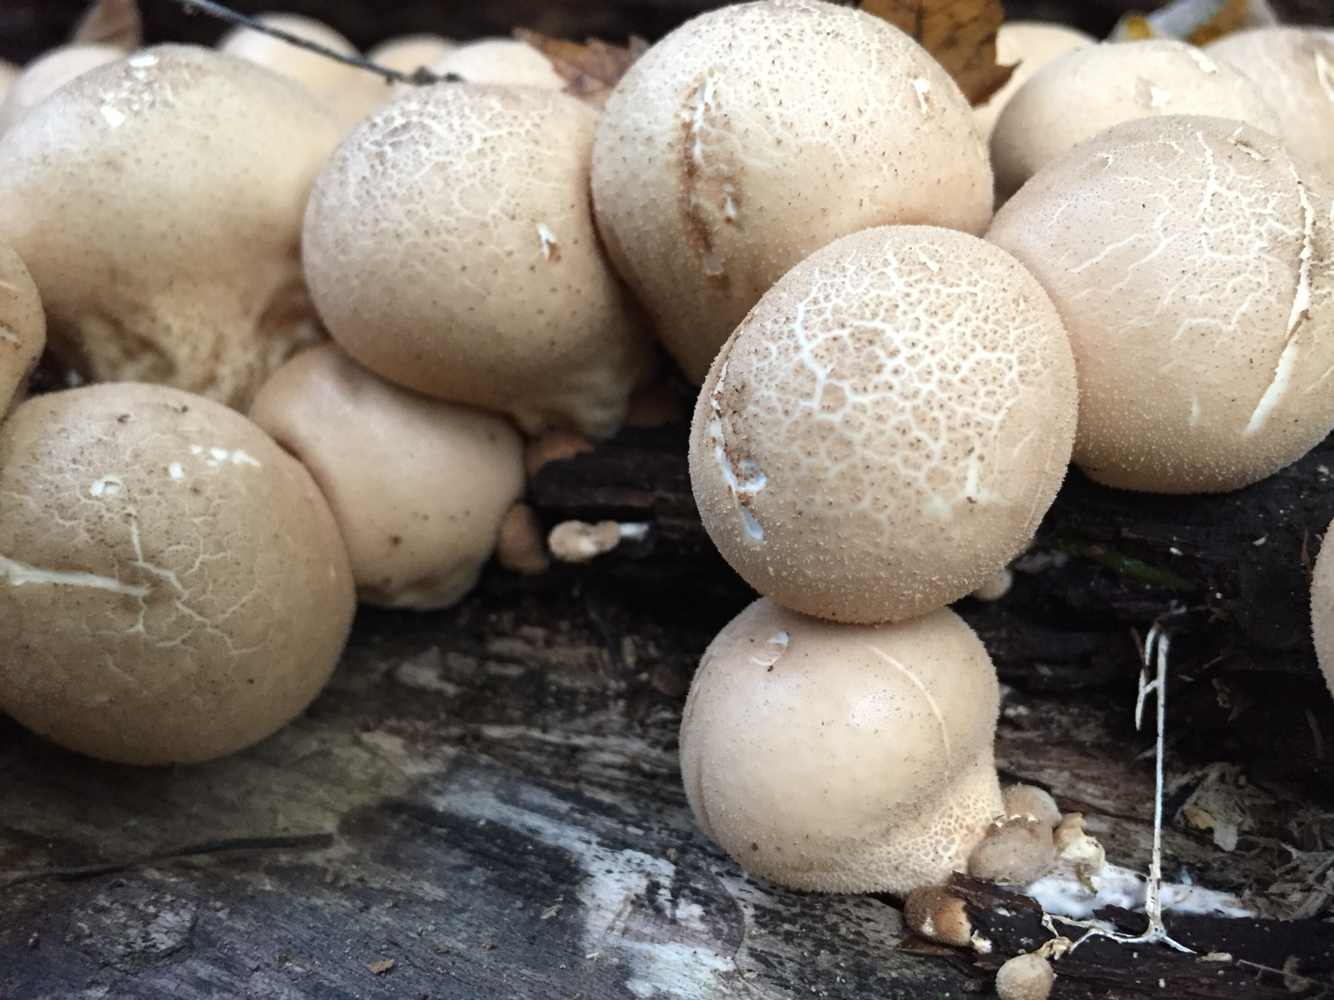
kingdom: Fungi
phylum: Basidiomycota
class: Agaricomycetes
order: Agaricales
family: Lycoperdaceae
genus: Apioperdon
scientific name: Apioperdon pyriforme
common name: Pear-shaped puffball
